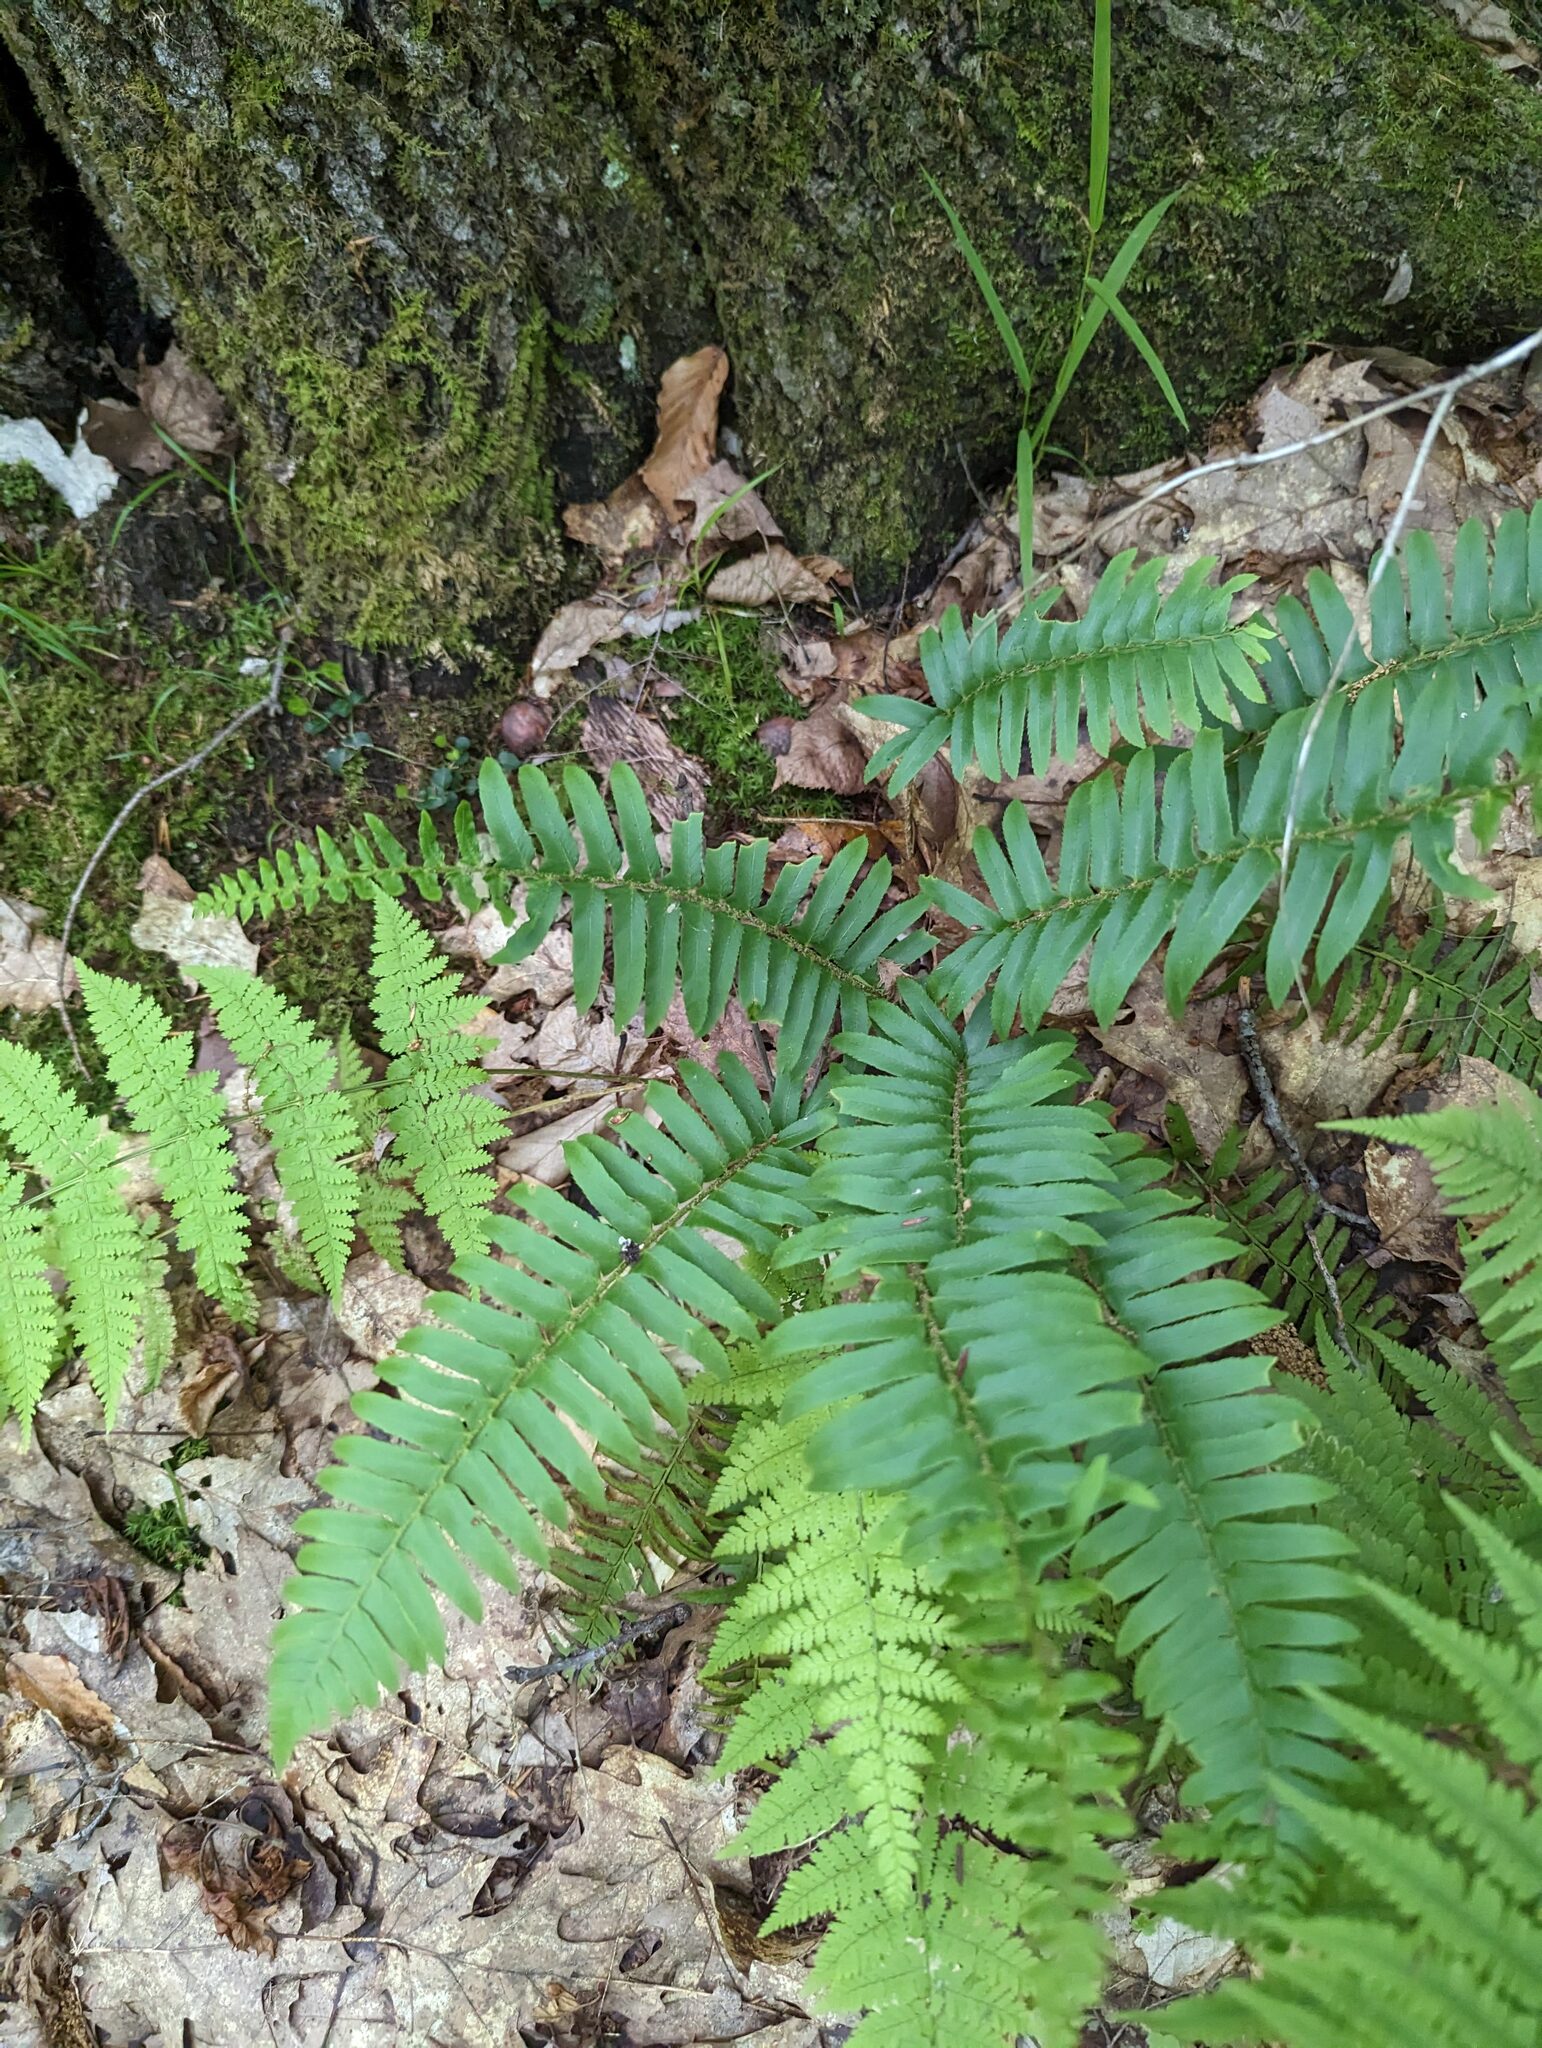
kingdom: Plantae
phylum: Tracheophyta
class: Polypodiopsida
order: Polypodiales
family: Dryopteridaceae
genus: Polystichum
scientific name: Polystichum acrostichoides
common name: Christmas fern
